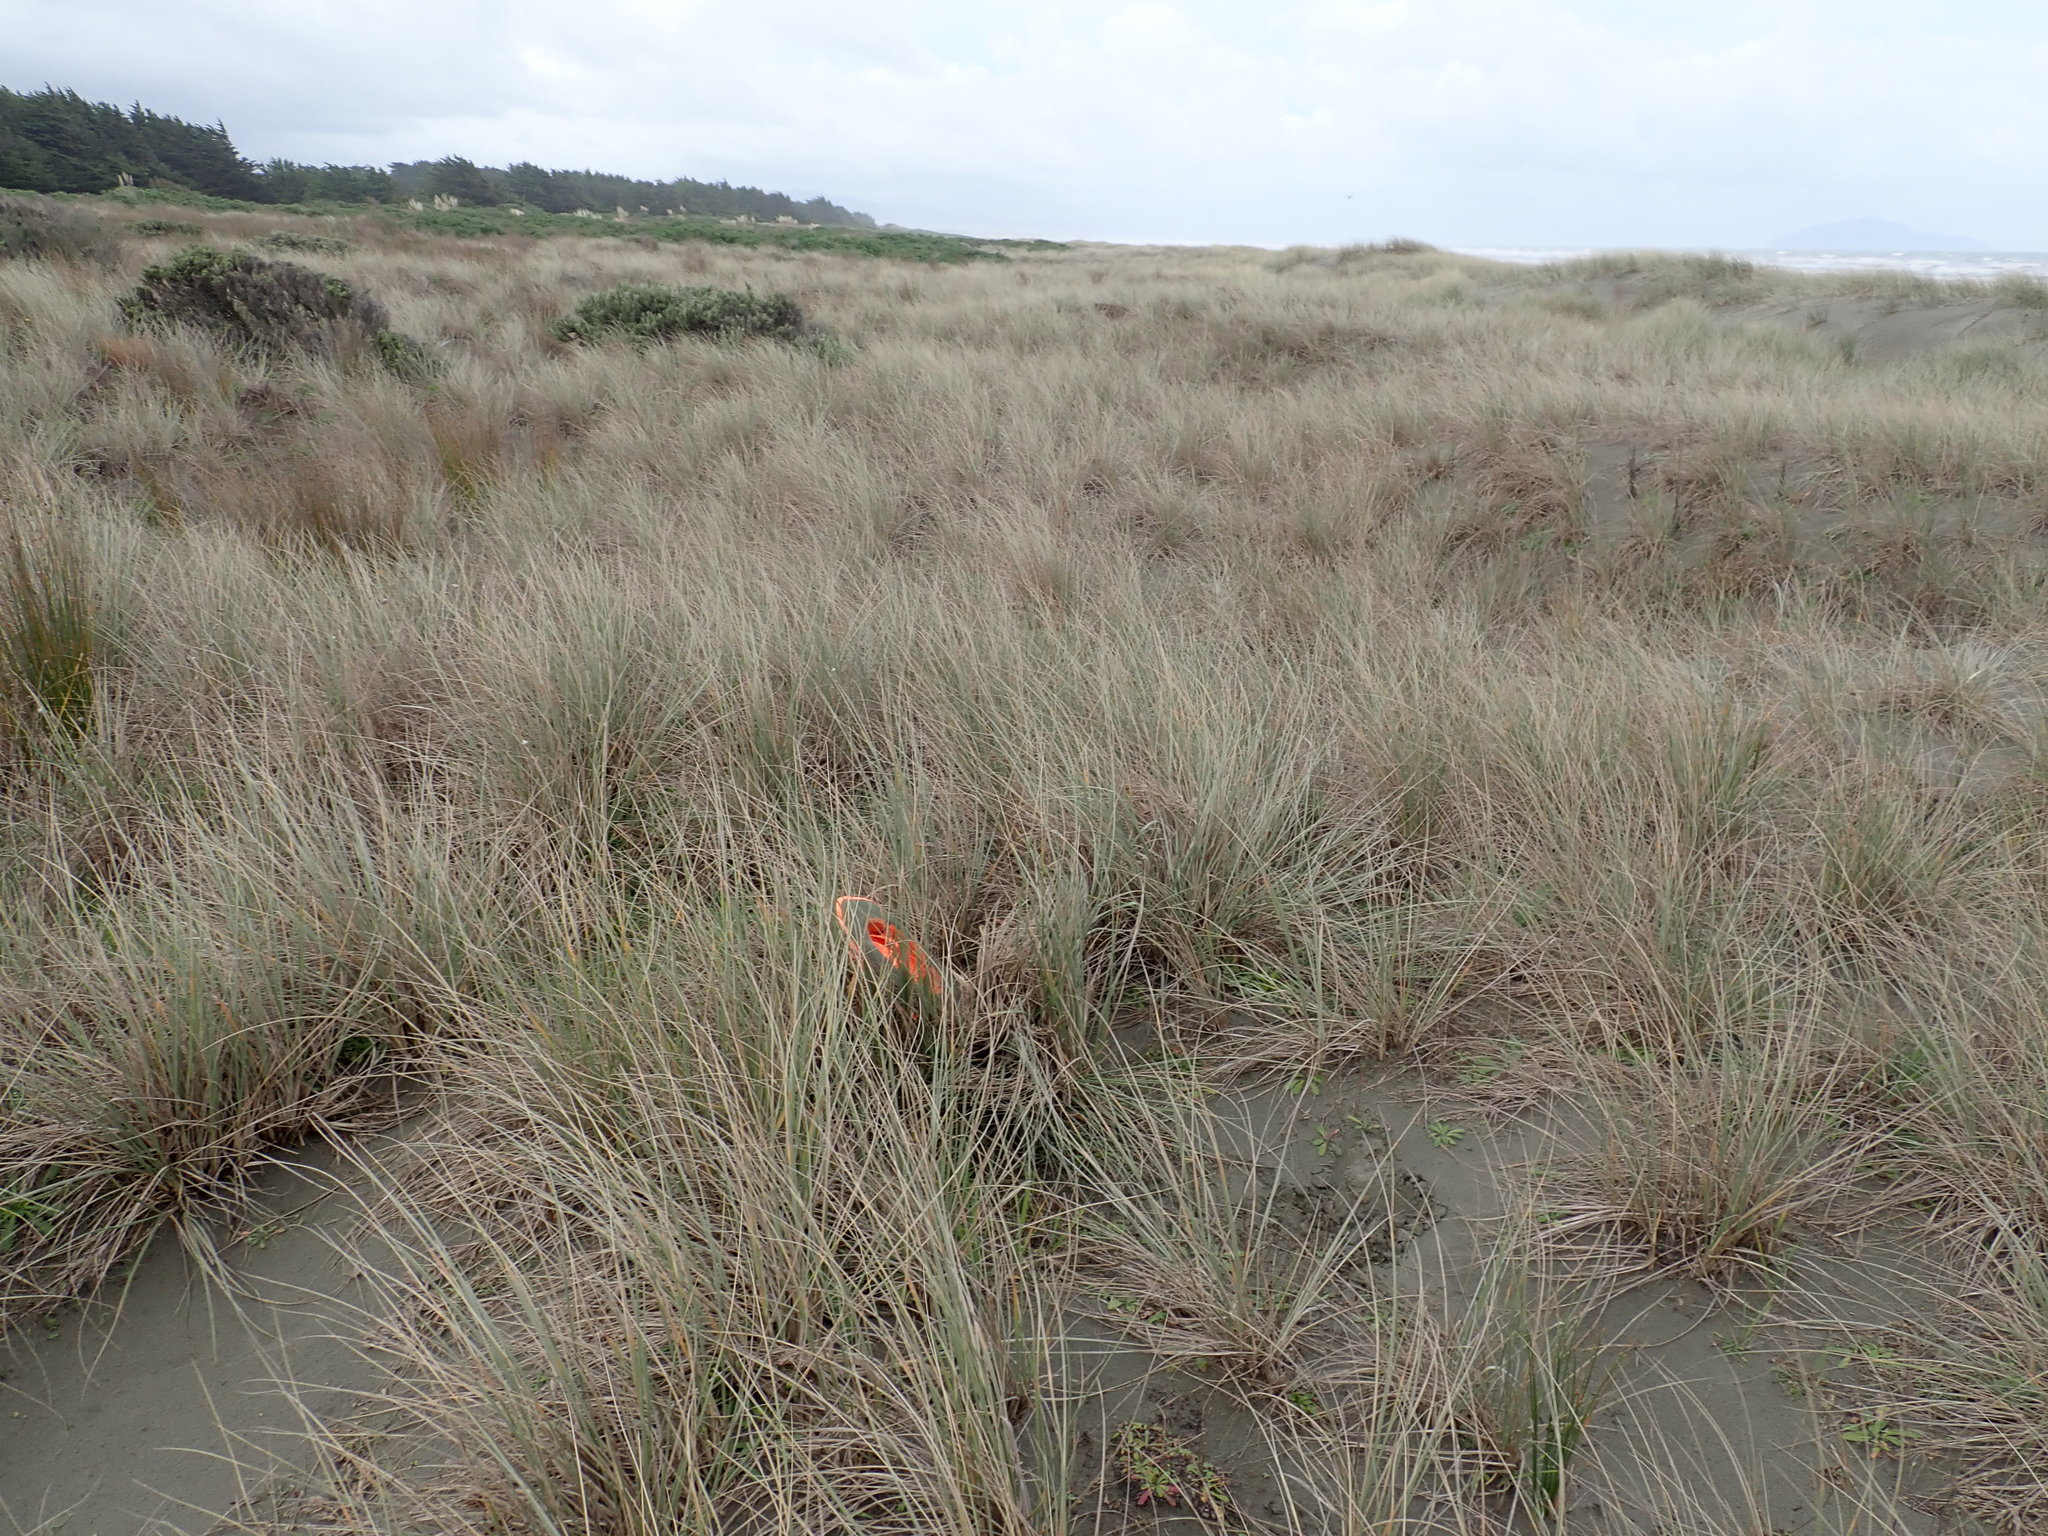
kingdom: Animalia
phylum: Arthropoda
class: Arachnida
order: Araneae
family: Thomisidae
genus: Sidymella
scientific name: Sidymella trapezia
